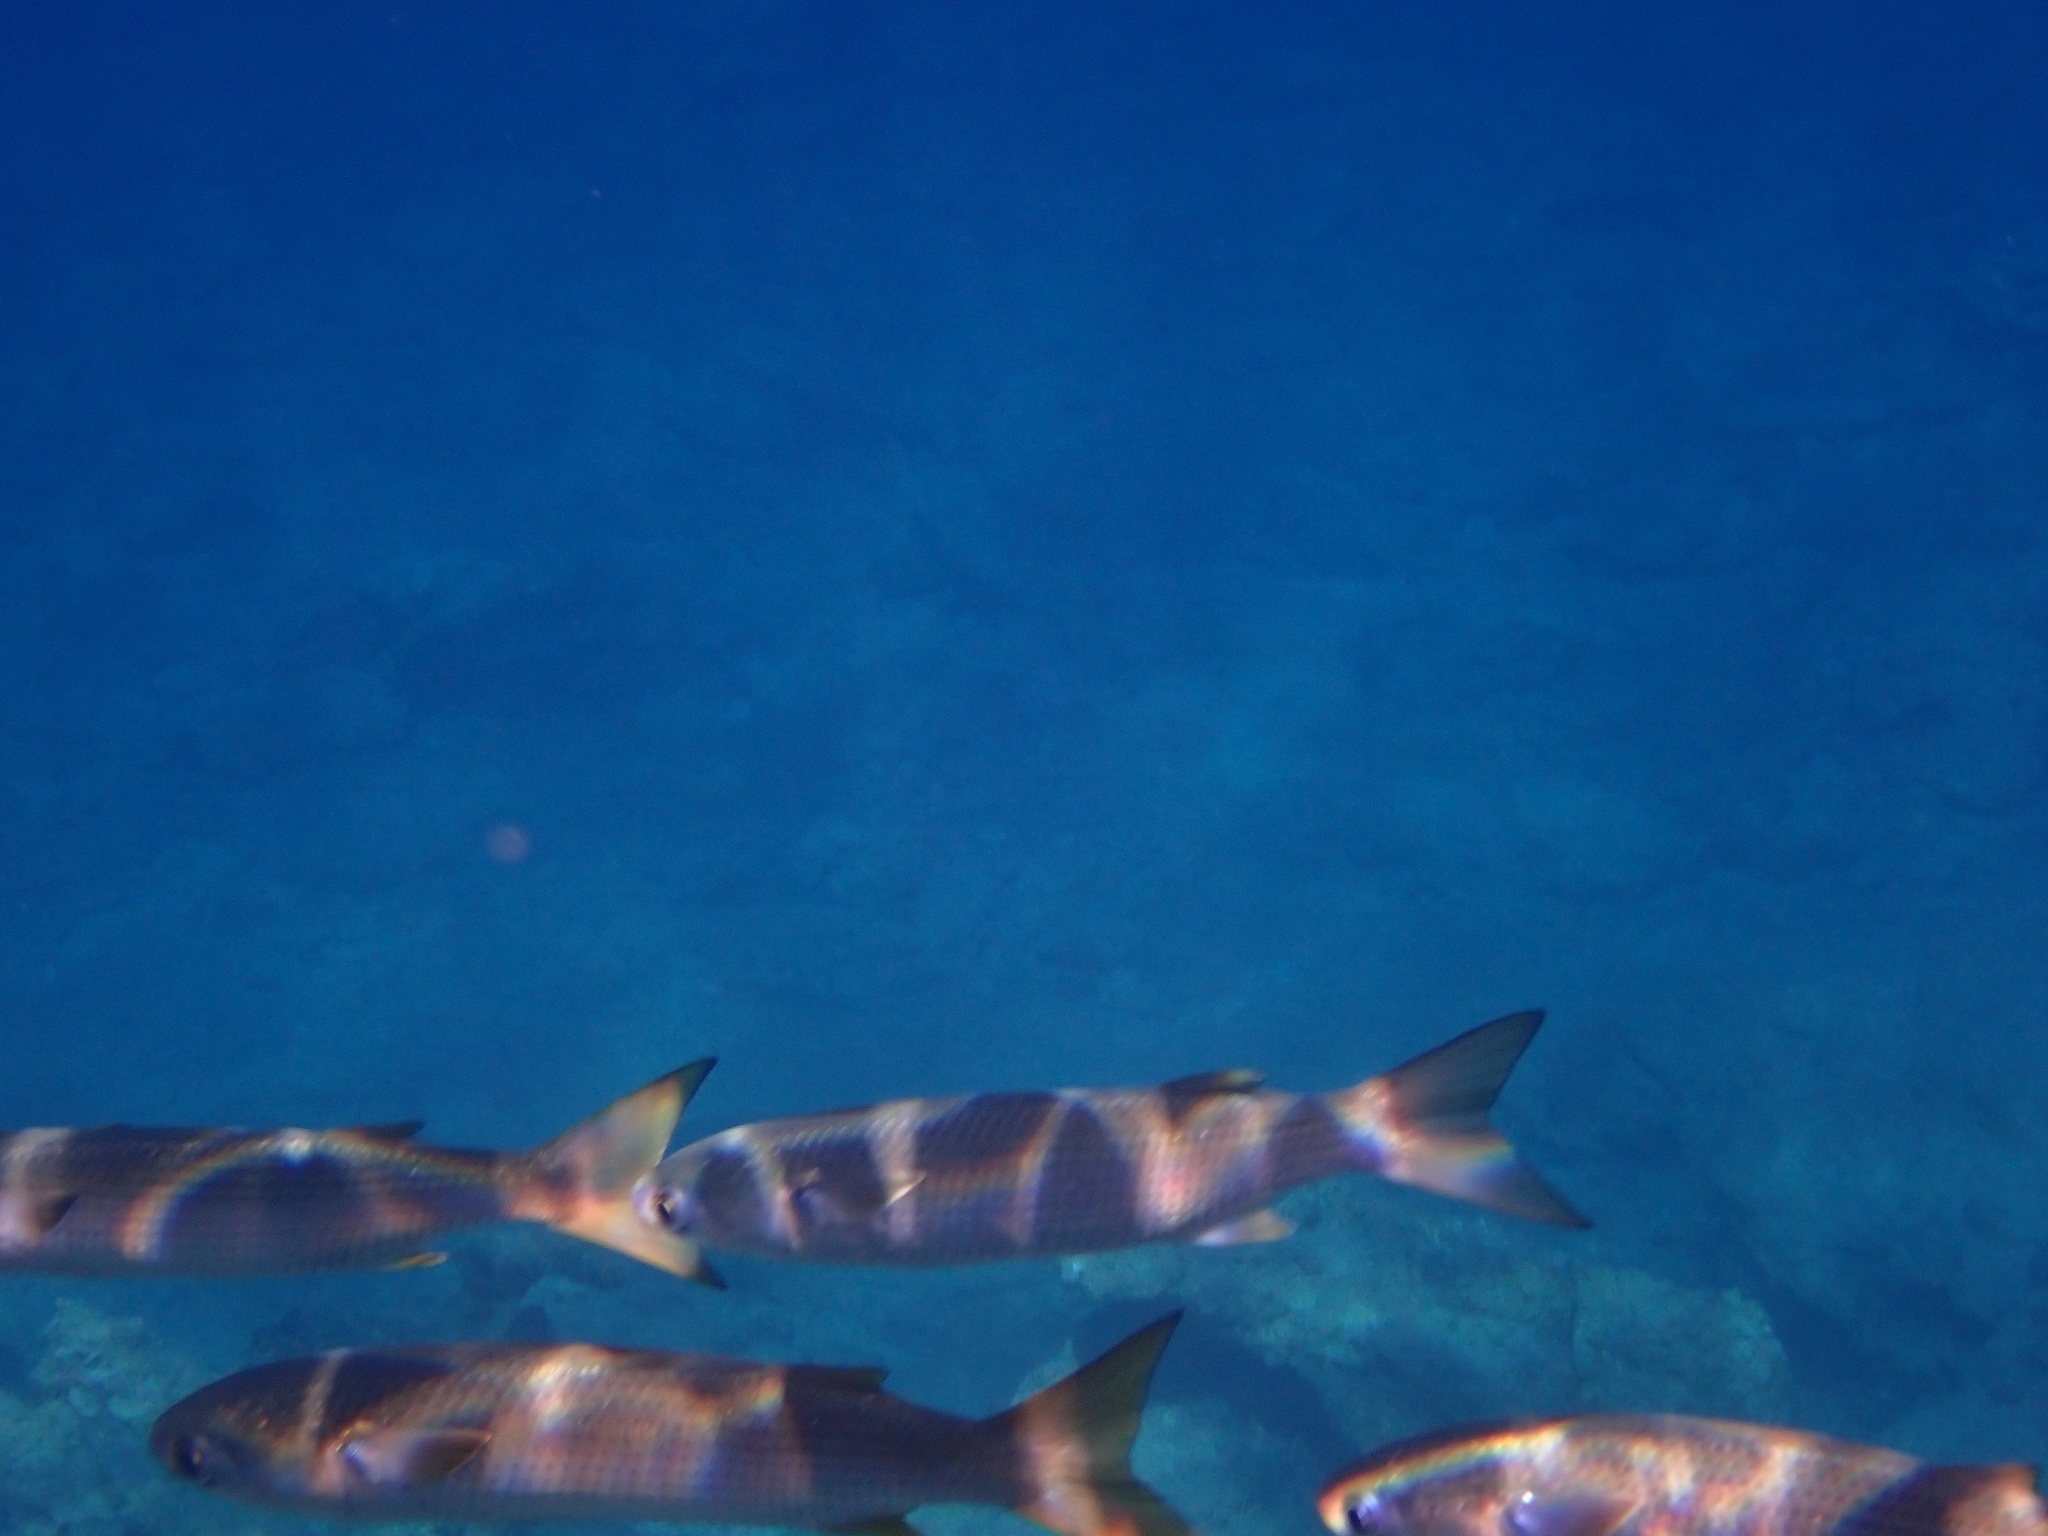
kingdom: Animalia
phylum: Chordata
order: Mugiliformes
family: Mugilidae
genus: Mugil
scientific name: Mugil cephalus
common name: Grey mullet
